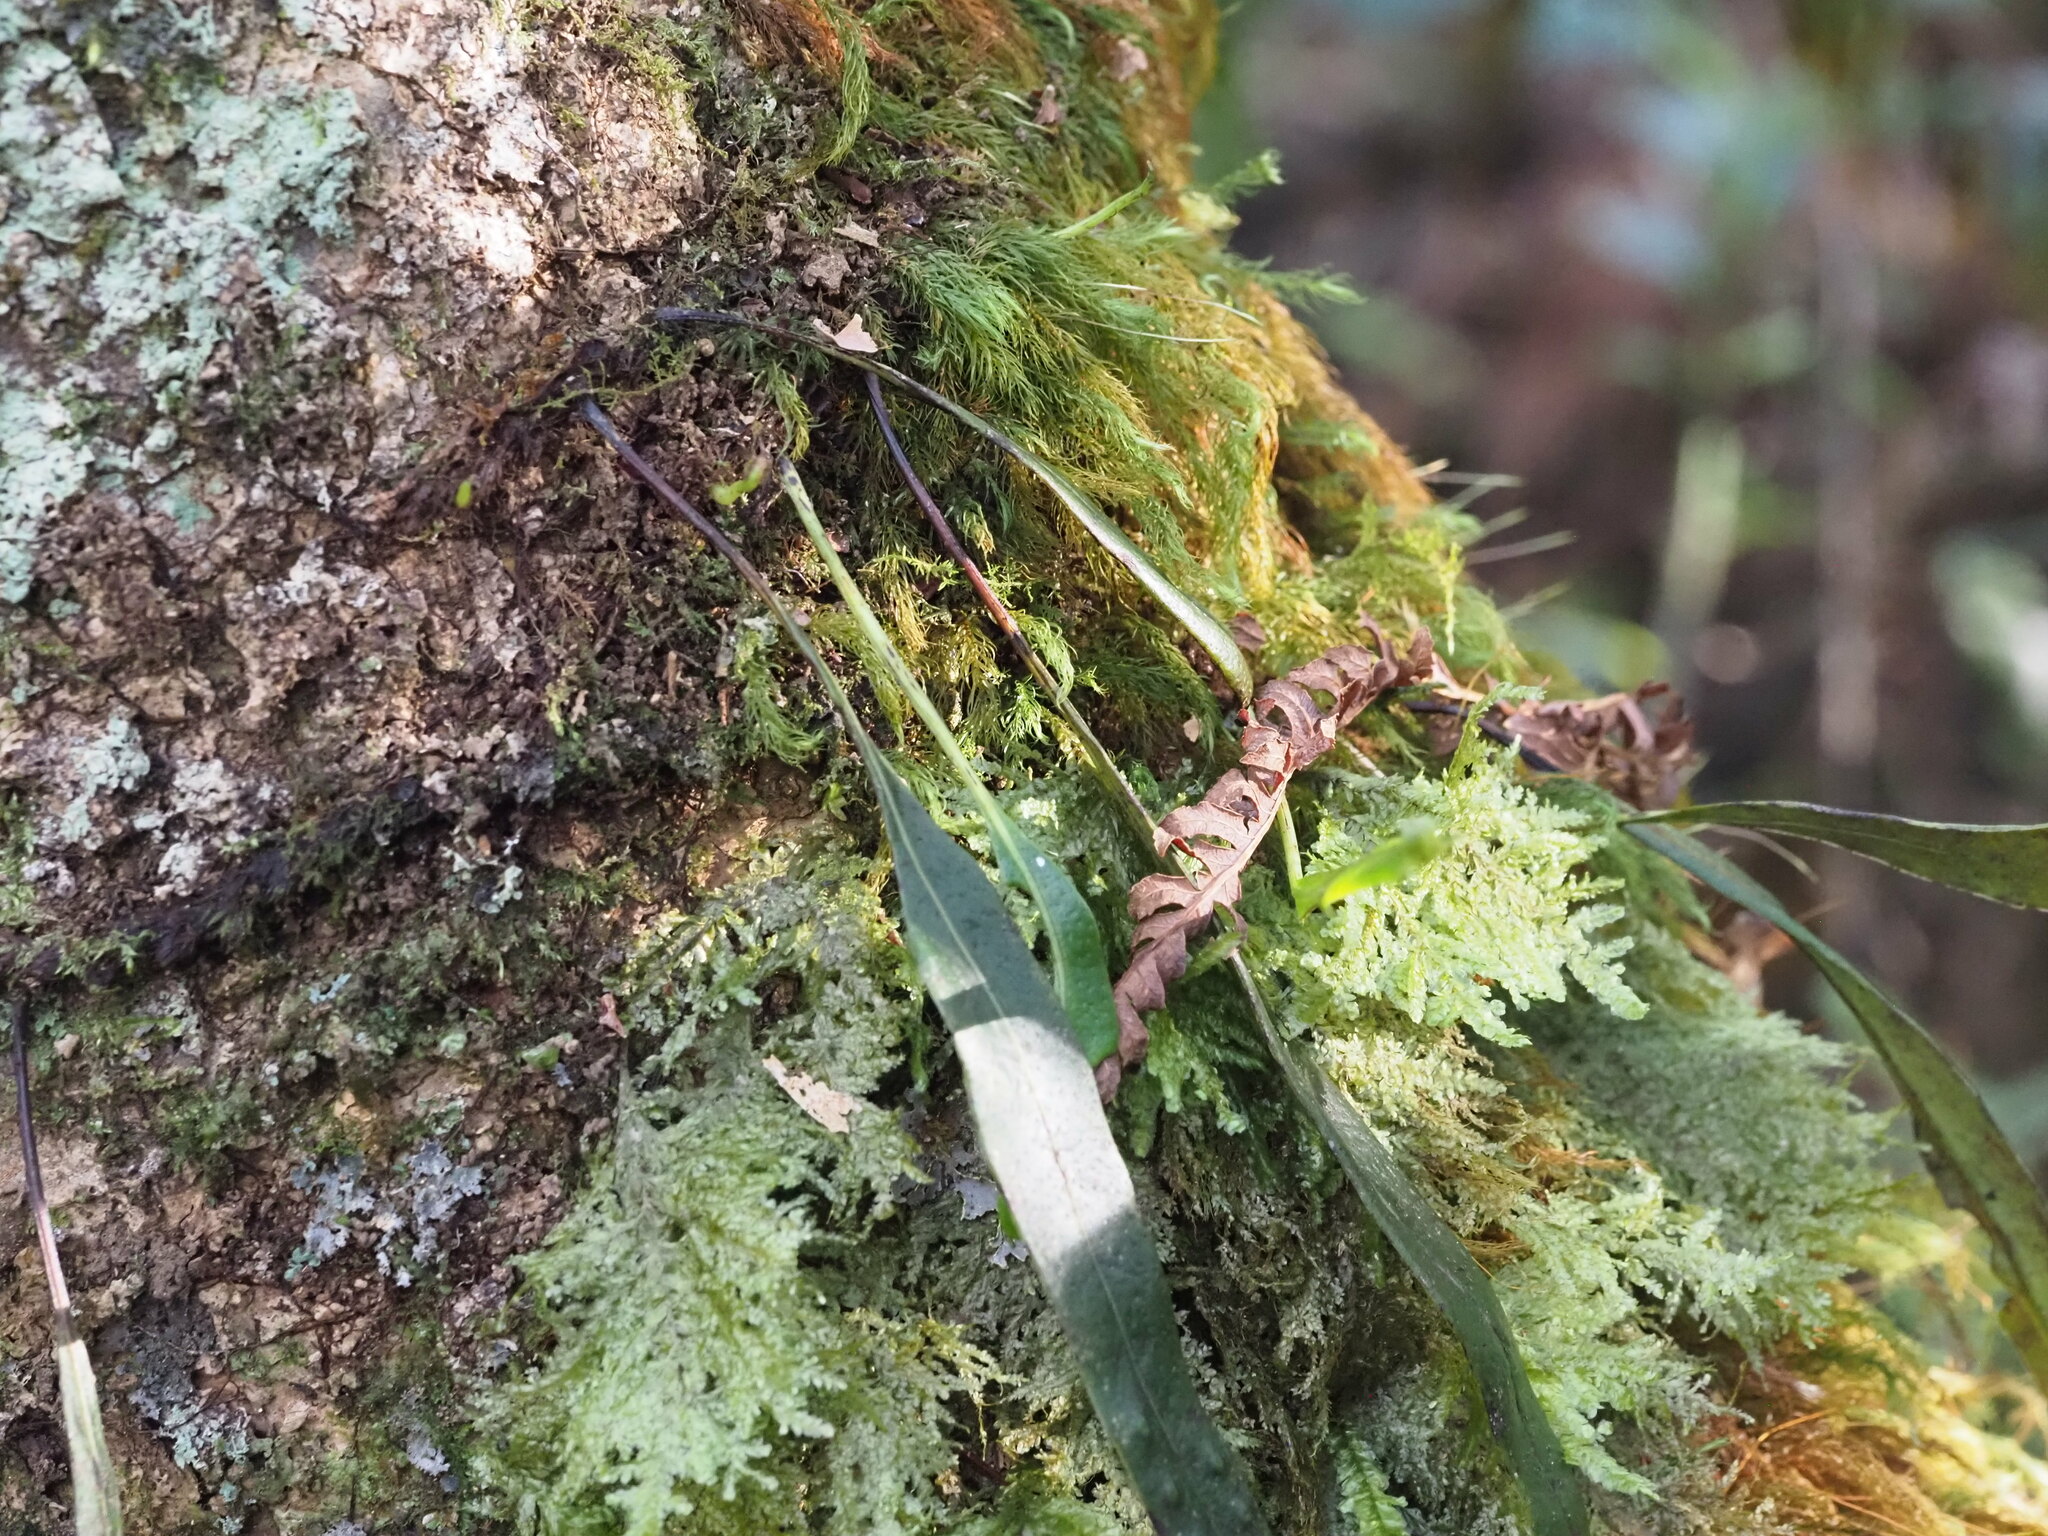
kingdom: Plantae
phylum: Tracheophyta
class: Polypodiopsida
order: Polypodiales
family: Polypodiaceae
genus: Lepisorus
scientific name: Lepisorus thunbergianus
